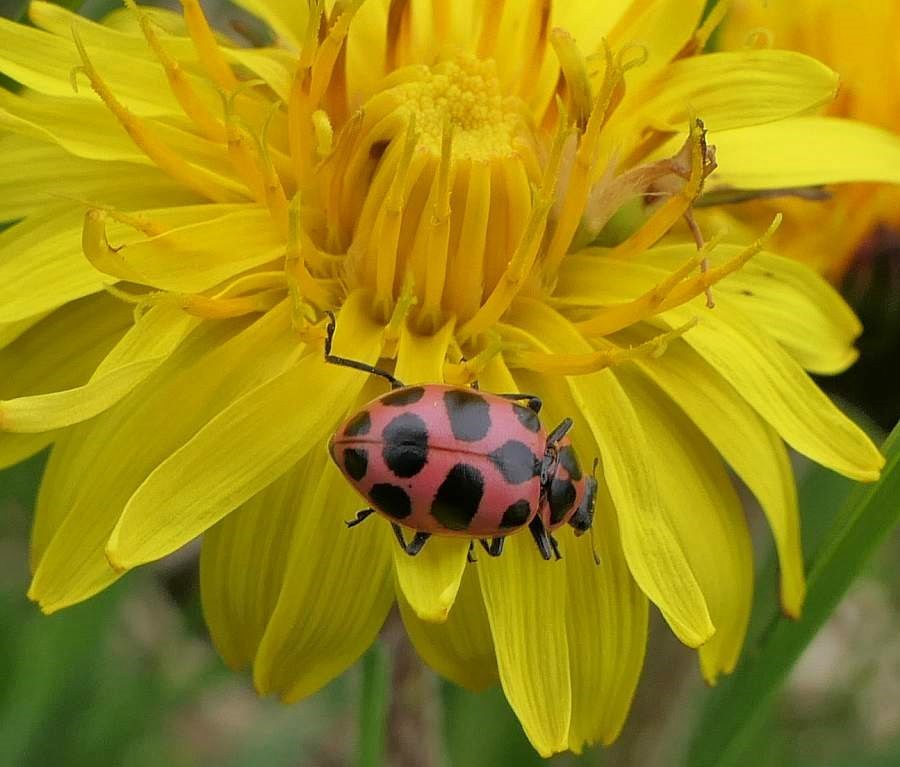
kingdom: Animalia
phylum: Arthropoda
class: Insecta
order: Coleoptera
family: Coccinellidae
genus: Coleomegilla
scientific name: Coleomegilla maculata
